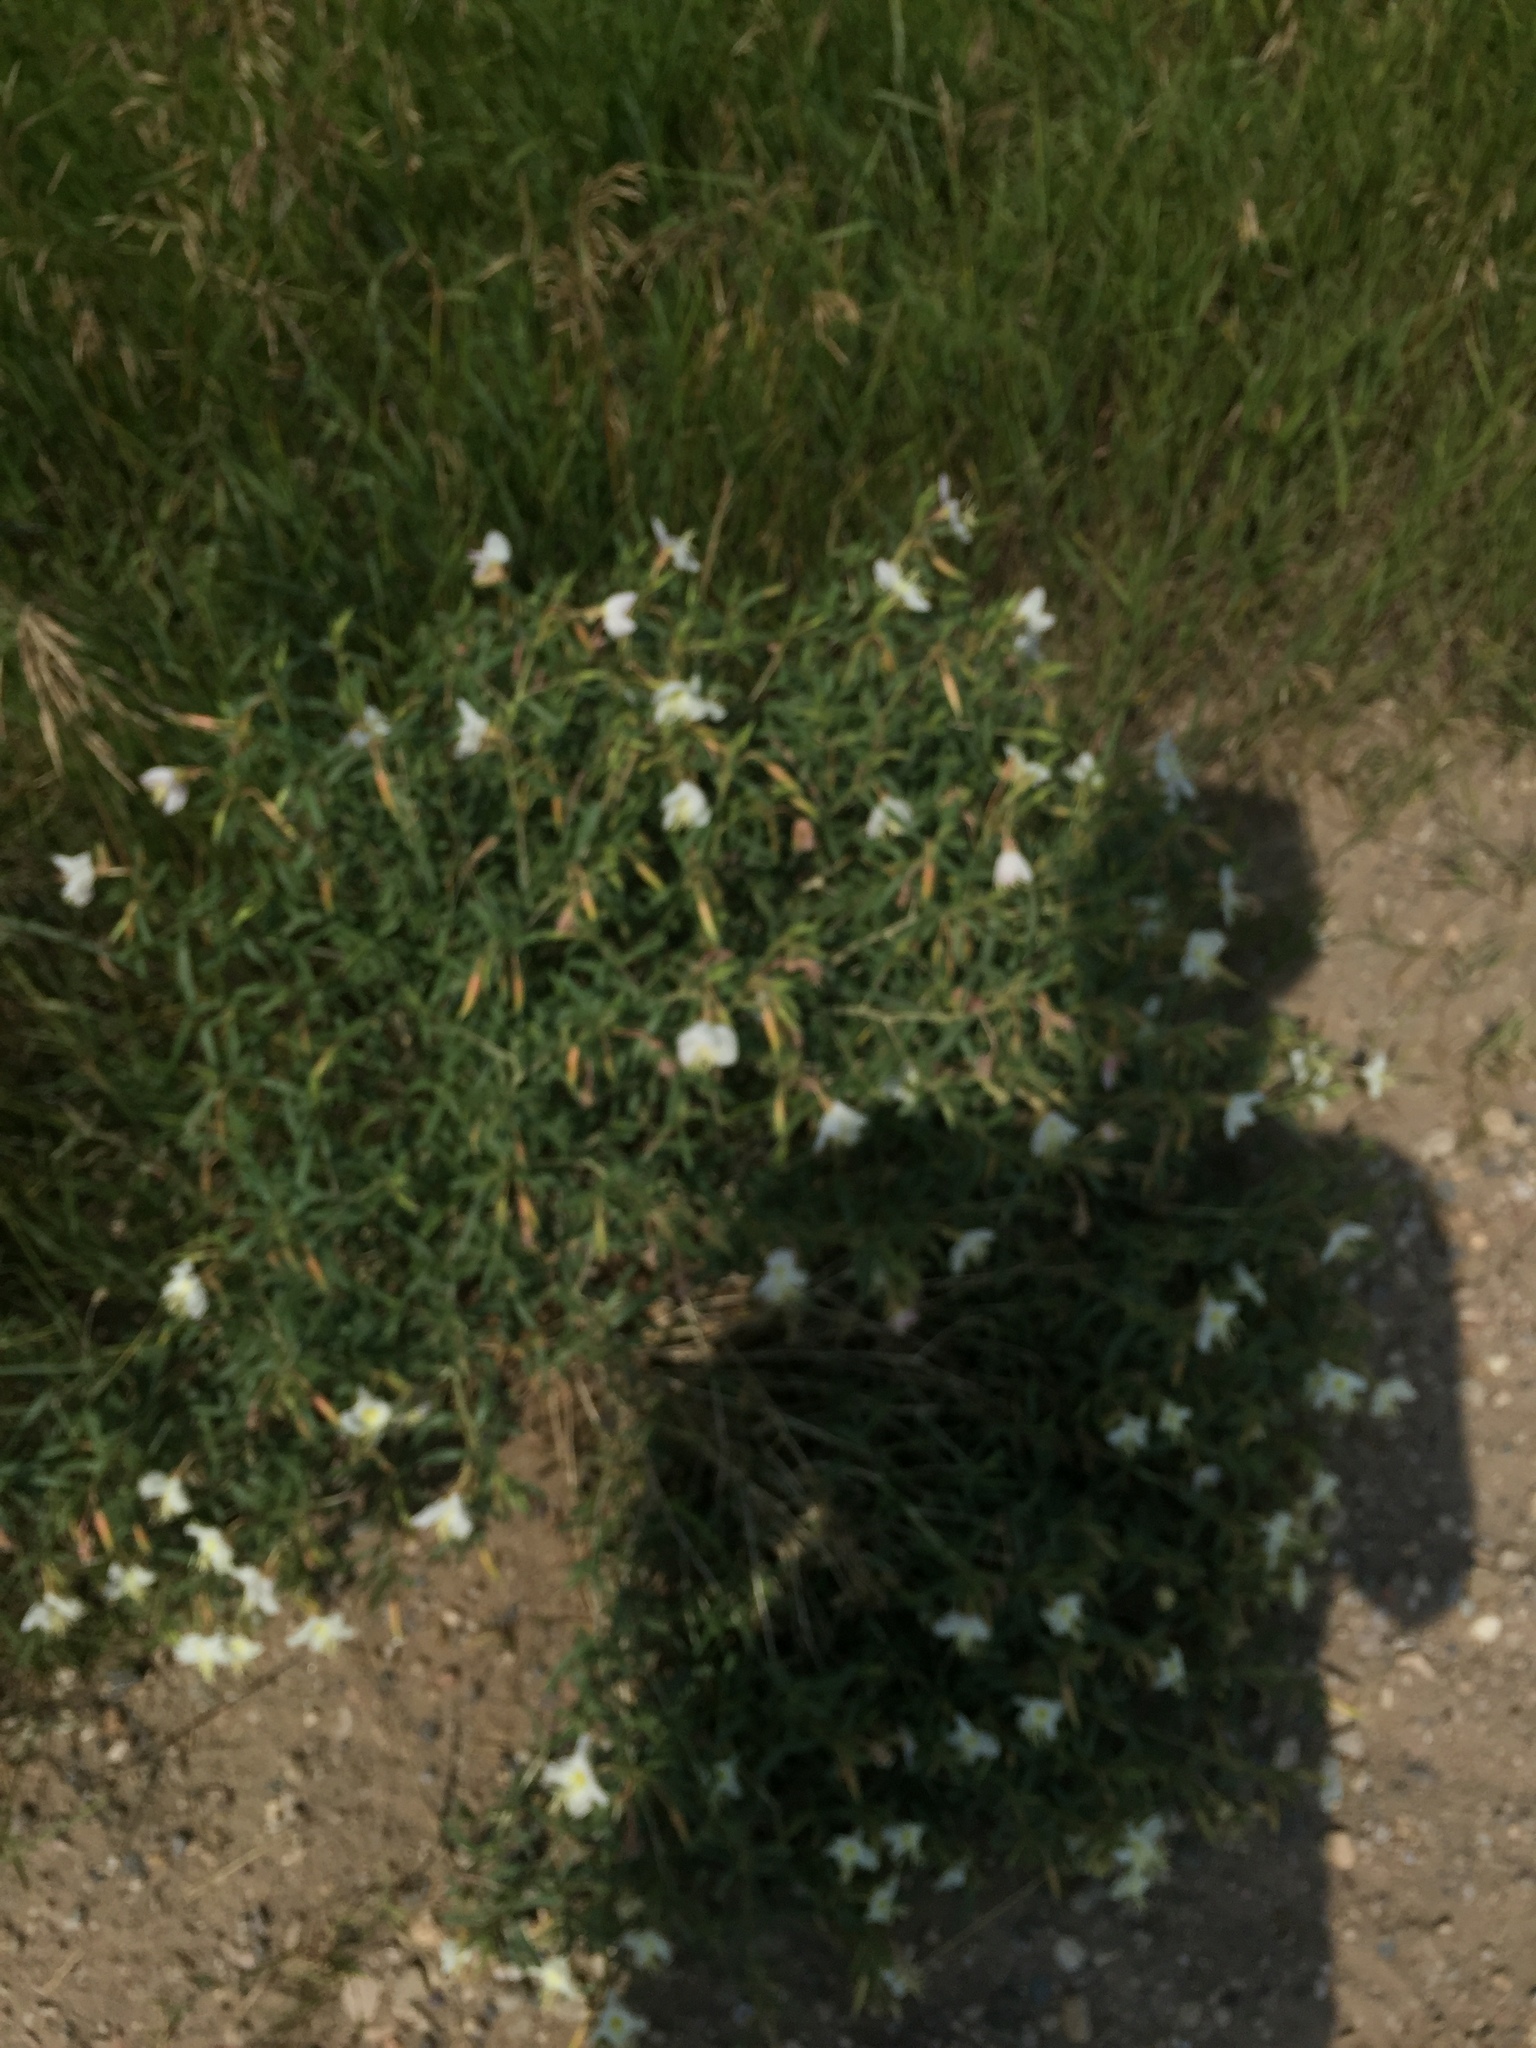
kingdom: Plantae
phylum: Tracheophyta
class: Magnoliopsida
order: Myrtales
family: Onagraceae
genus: Oenothera
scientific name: Oenothera nuttallii
